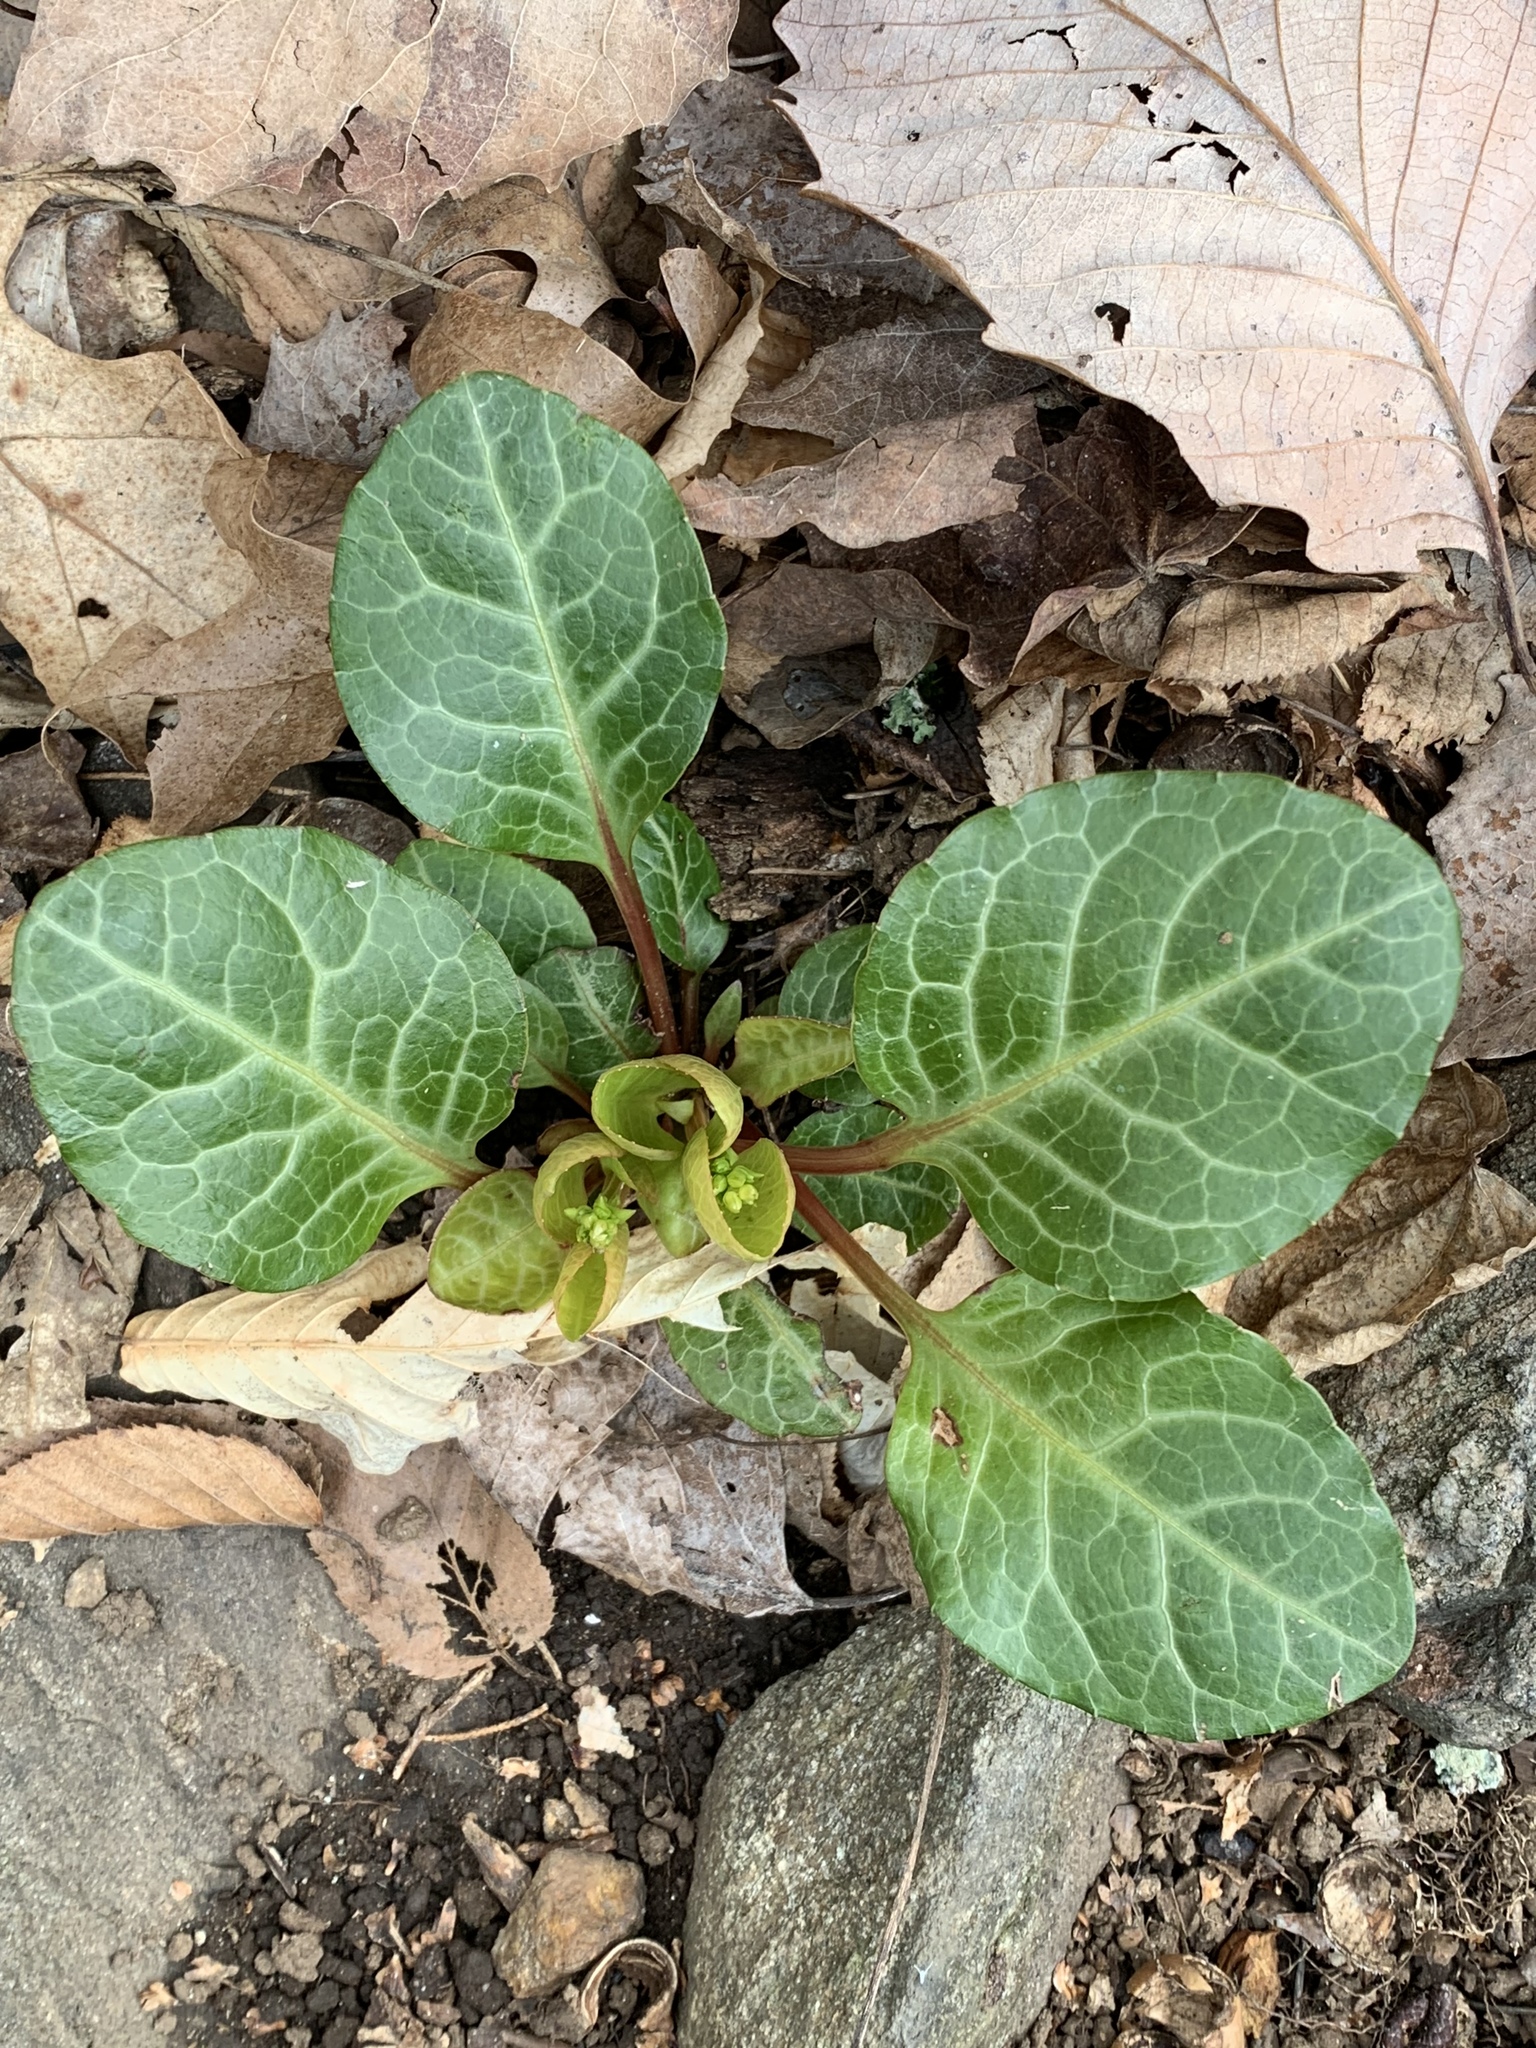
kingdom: Plantae
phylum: Tracheophyta
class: Magnoliopsida
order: Ericales
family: Ericaceae
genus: Pyrola
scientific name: Pyrola americana
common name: American wintergreen
